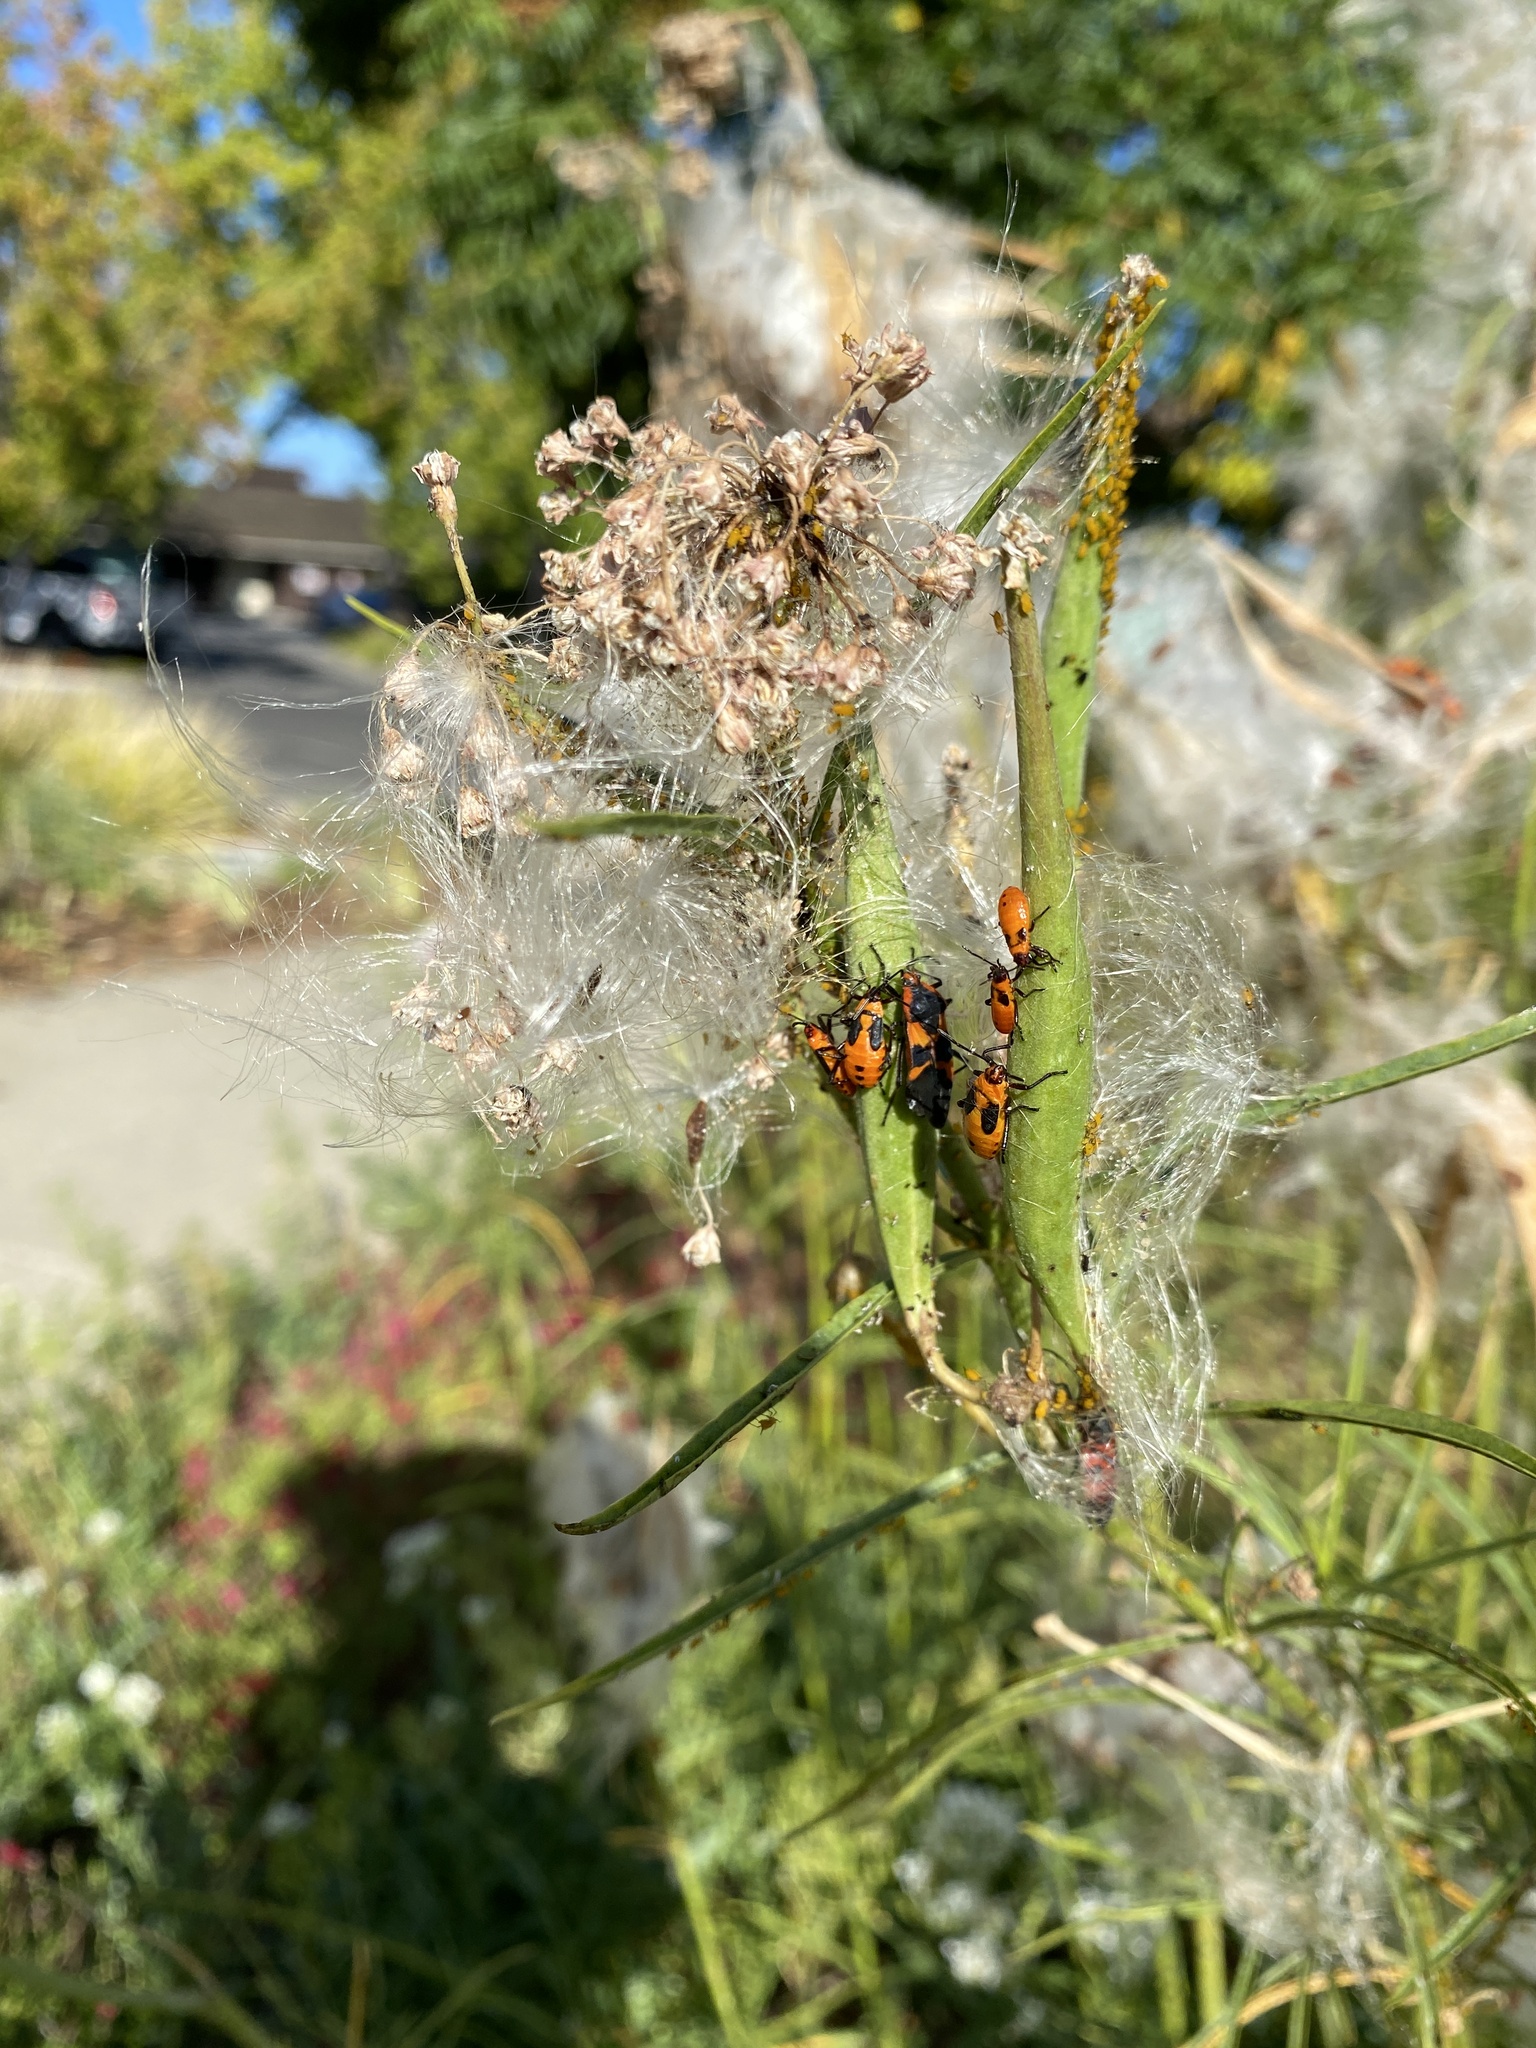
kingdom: Animalia
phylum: Arthropoda
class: Insecta
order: Hemiptera
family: Lygaeidae
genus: Oncopeltus
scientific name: Oncopeltus fasciatus
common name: Large milkweed bug
